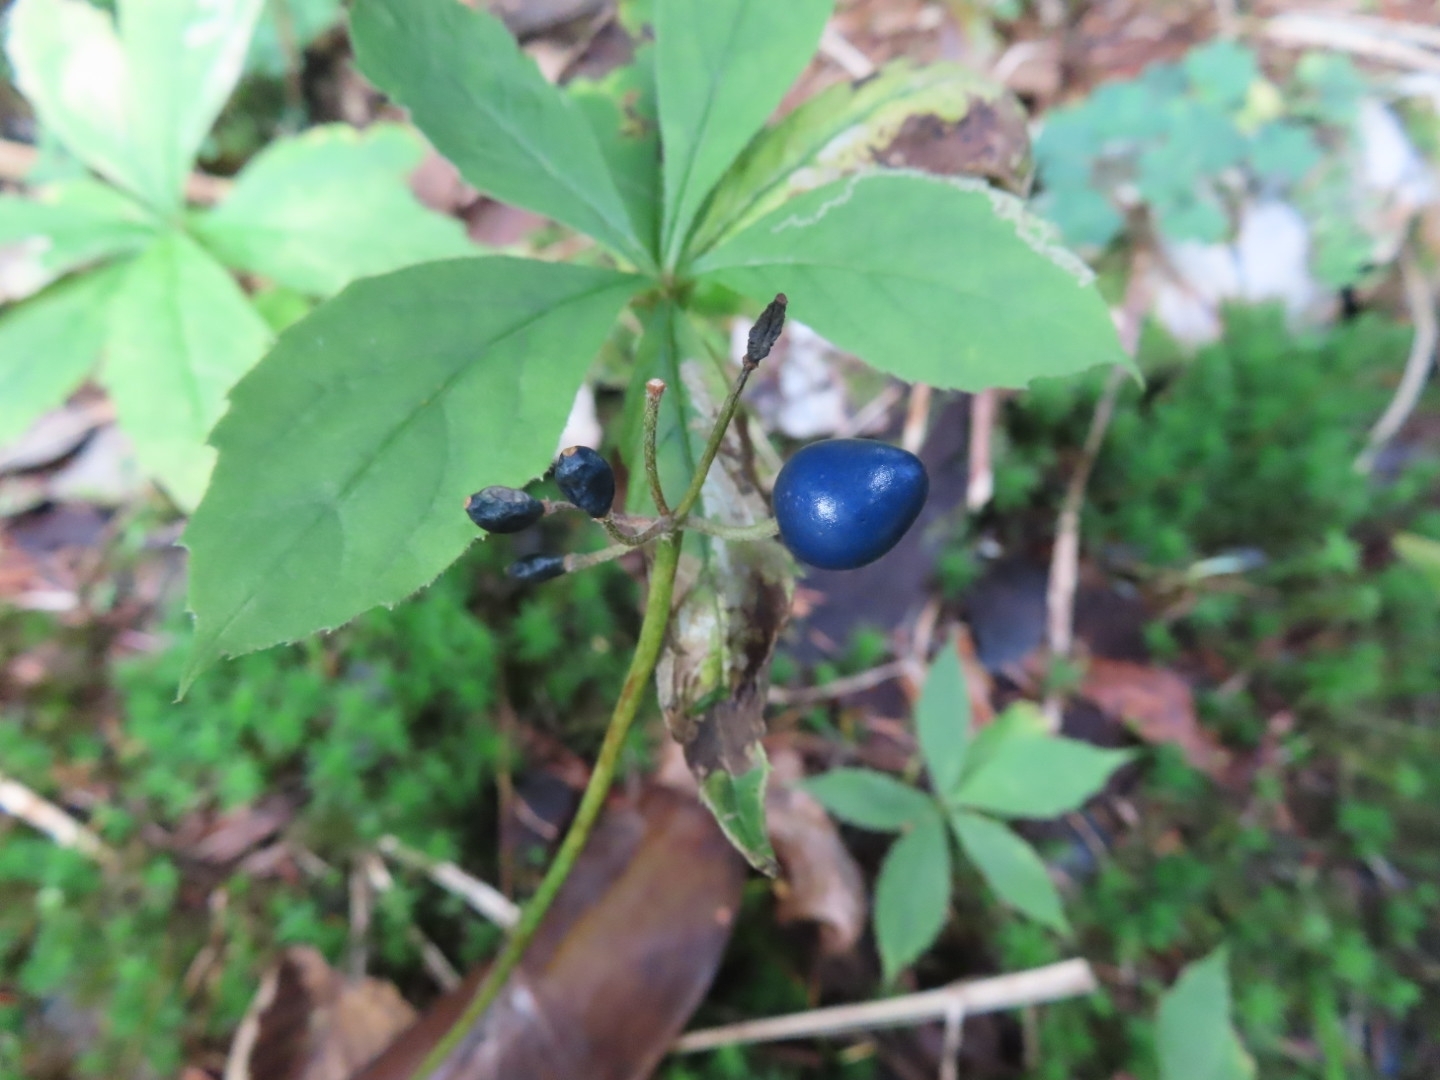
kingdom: Plantae
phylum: Tracheophyta
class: Liliopsida
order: Liliales
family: Liliaceae
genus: Clintonia
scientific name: Clintonia borealis
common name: Yellow clintonia
